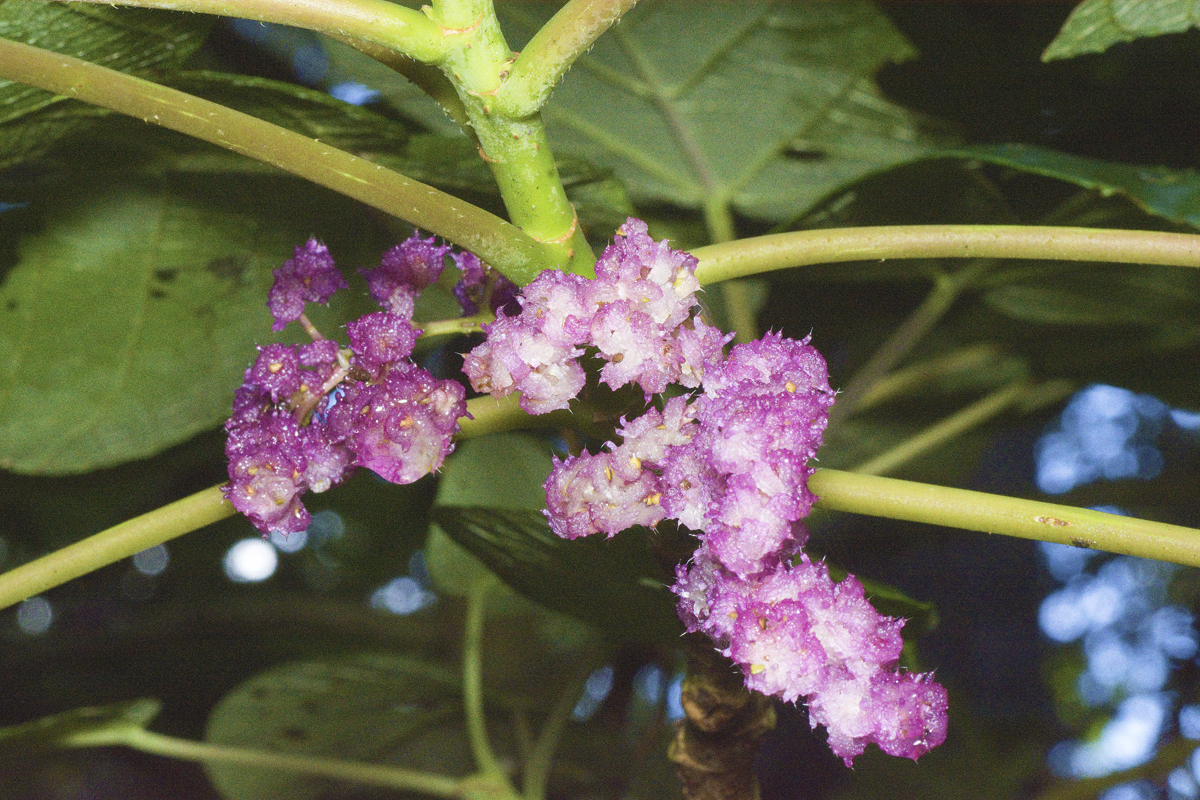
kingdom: Plantae
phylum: Tracheophyta
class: Magnoliopsida
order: Rosales
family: Urticaceae
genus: Dendrocnide
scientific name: Dendrocnide excelsa
